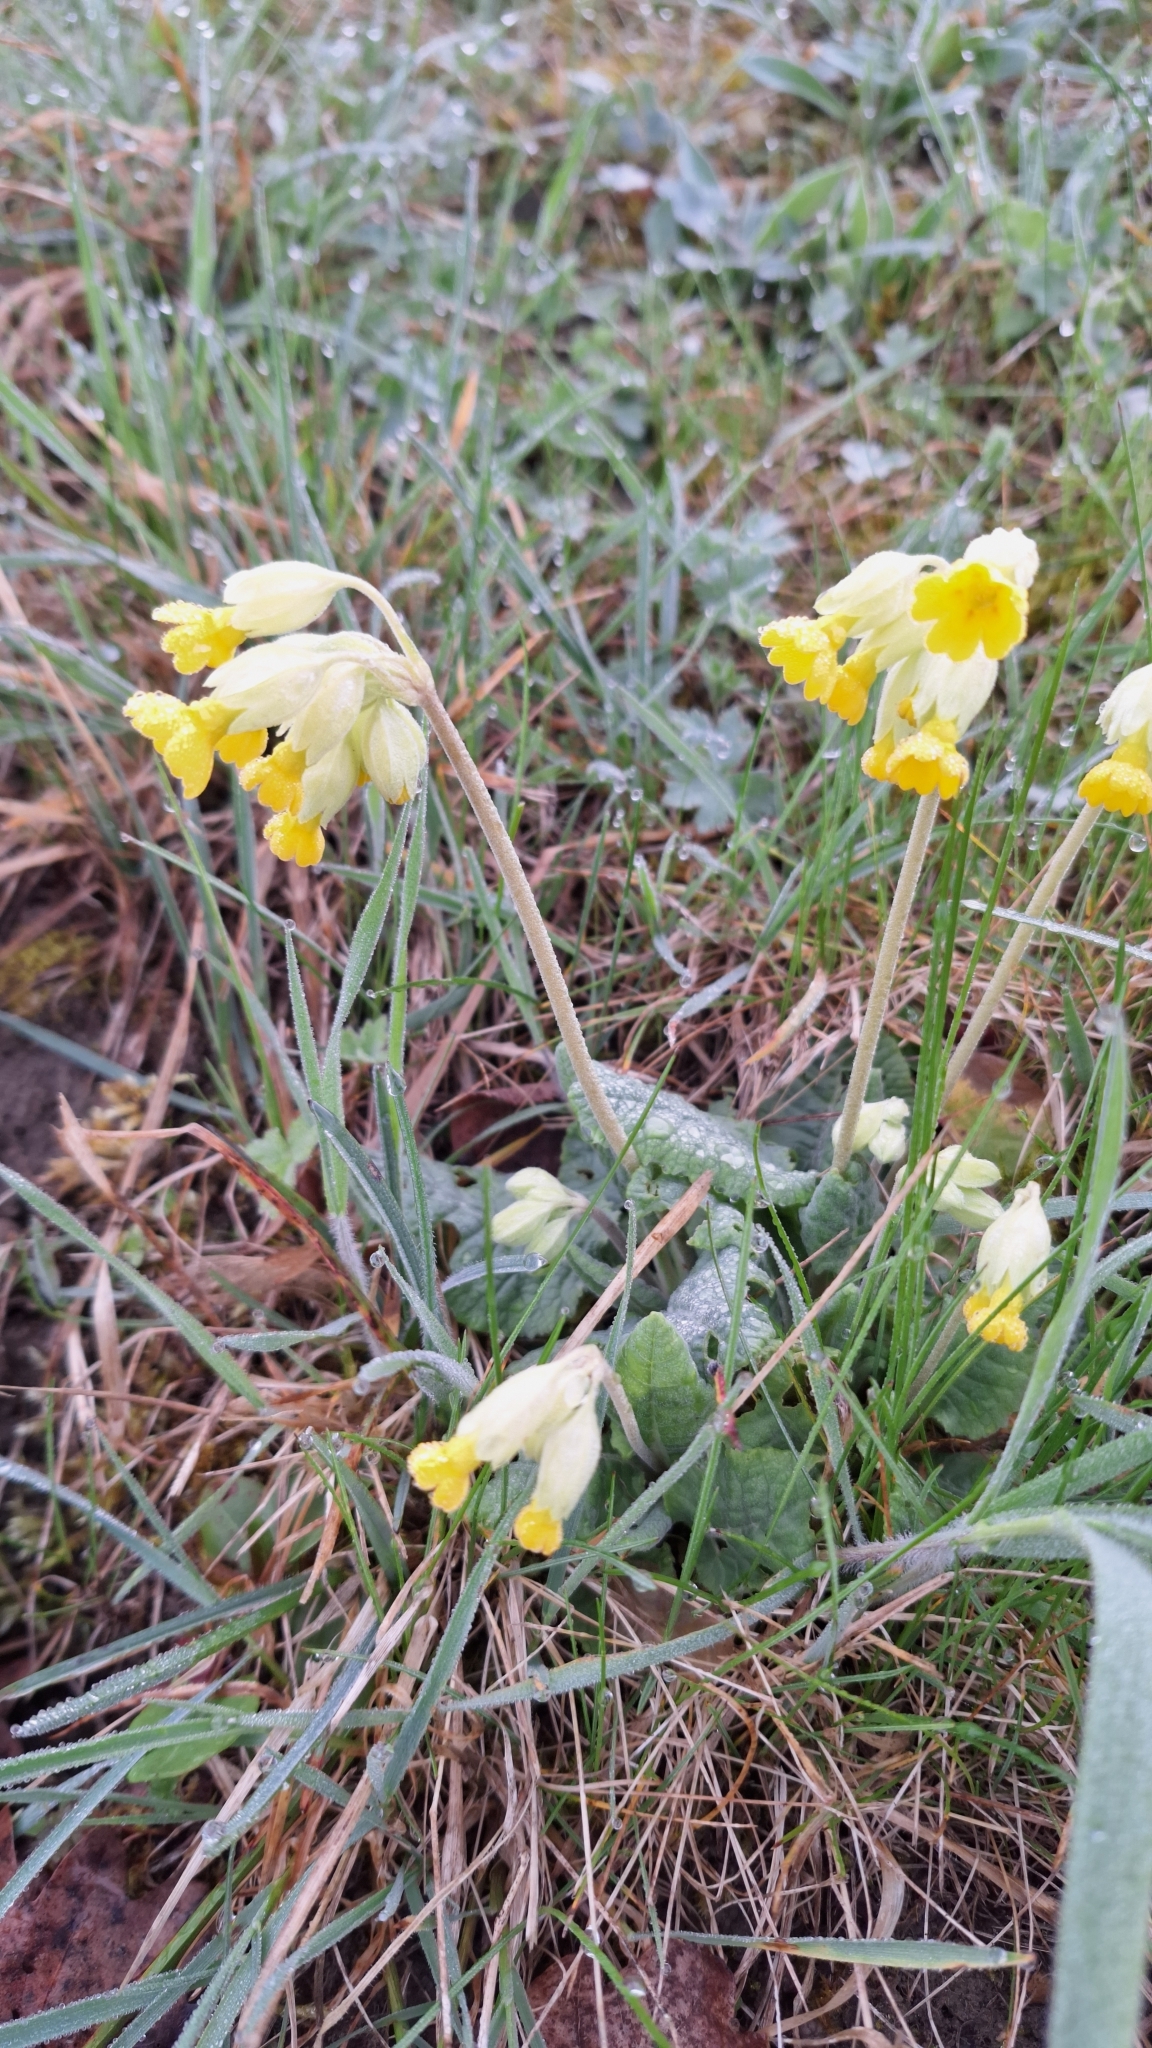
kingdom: Plantae
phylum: Tracheophyta
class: Magnoliopsida
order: Ericales
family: Primulaceae
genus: Primula
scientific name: Primula veris
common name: Cowslip
